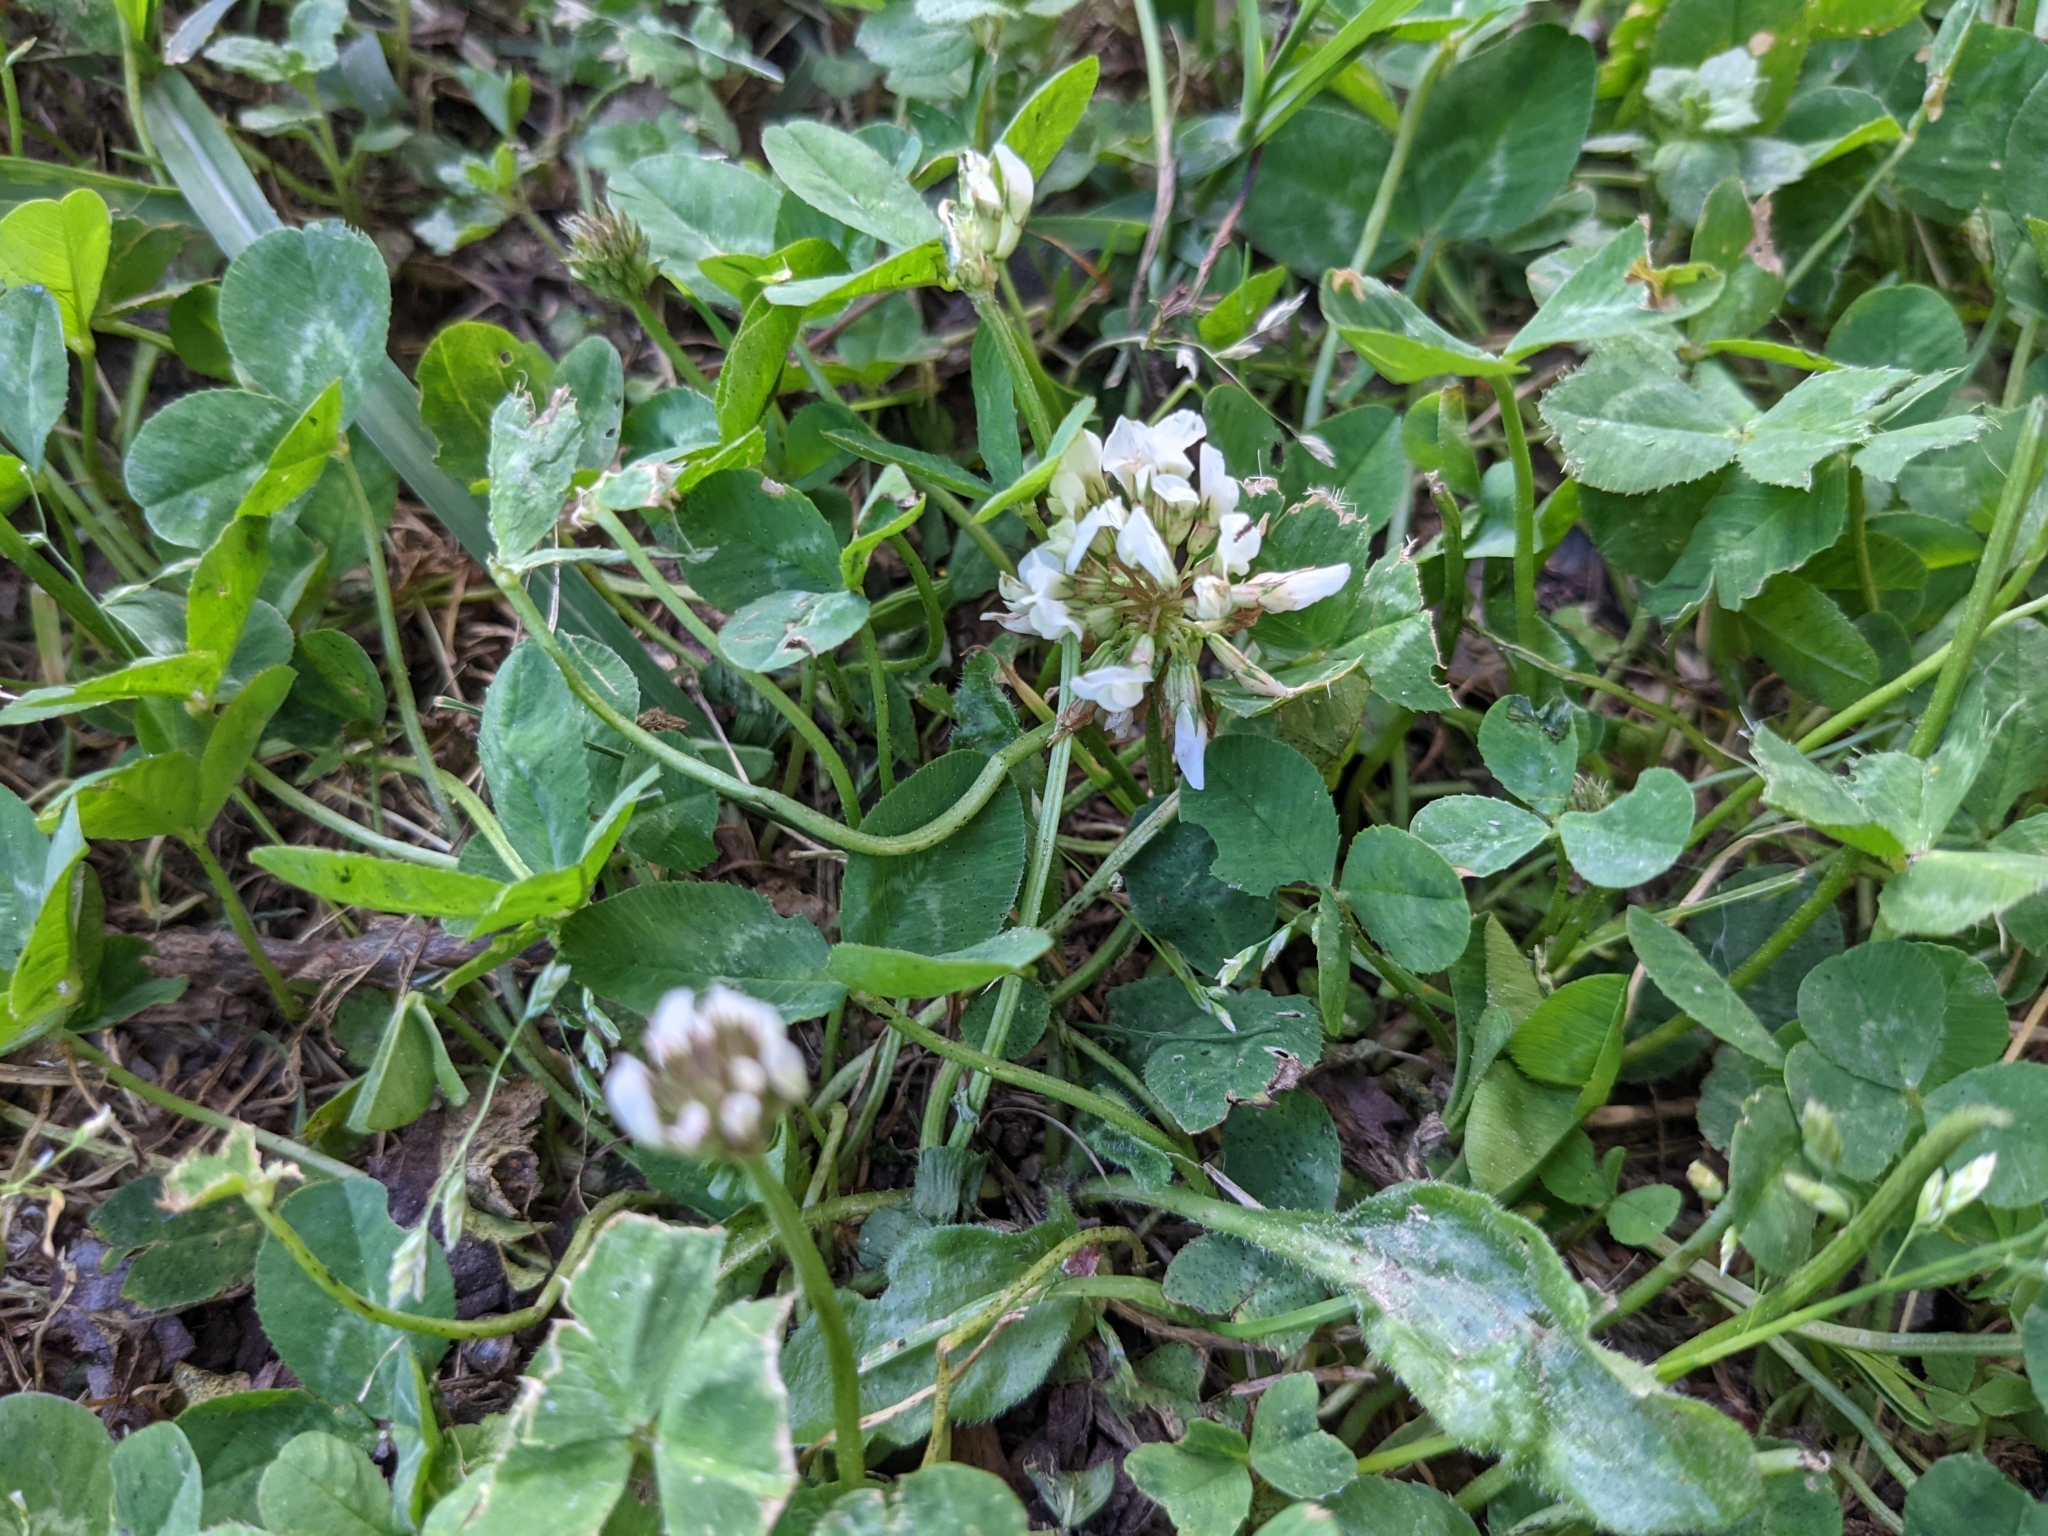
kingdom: Plantae
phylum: Tracheophyta
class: Magnoliopsida
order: Fabales
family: Fabaceae
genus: Trifolium
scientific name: Trifolium repens
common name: White clover
